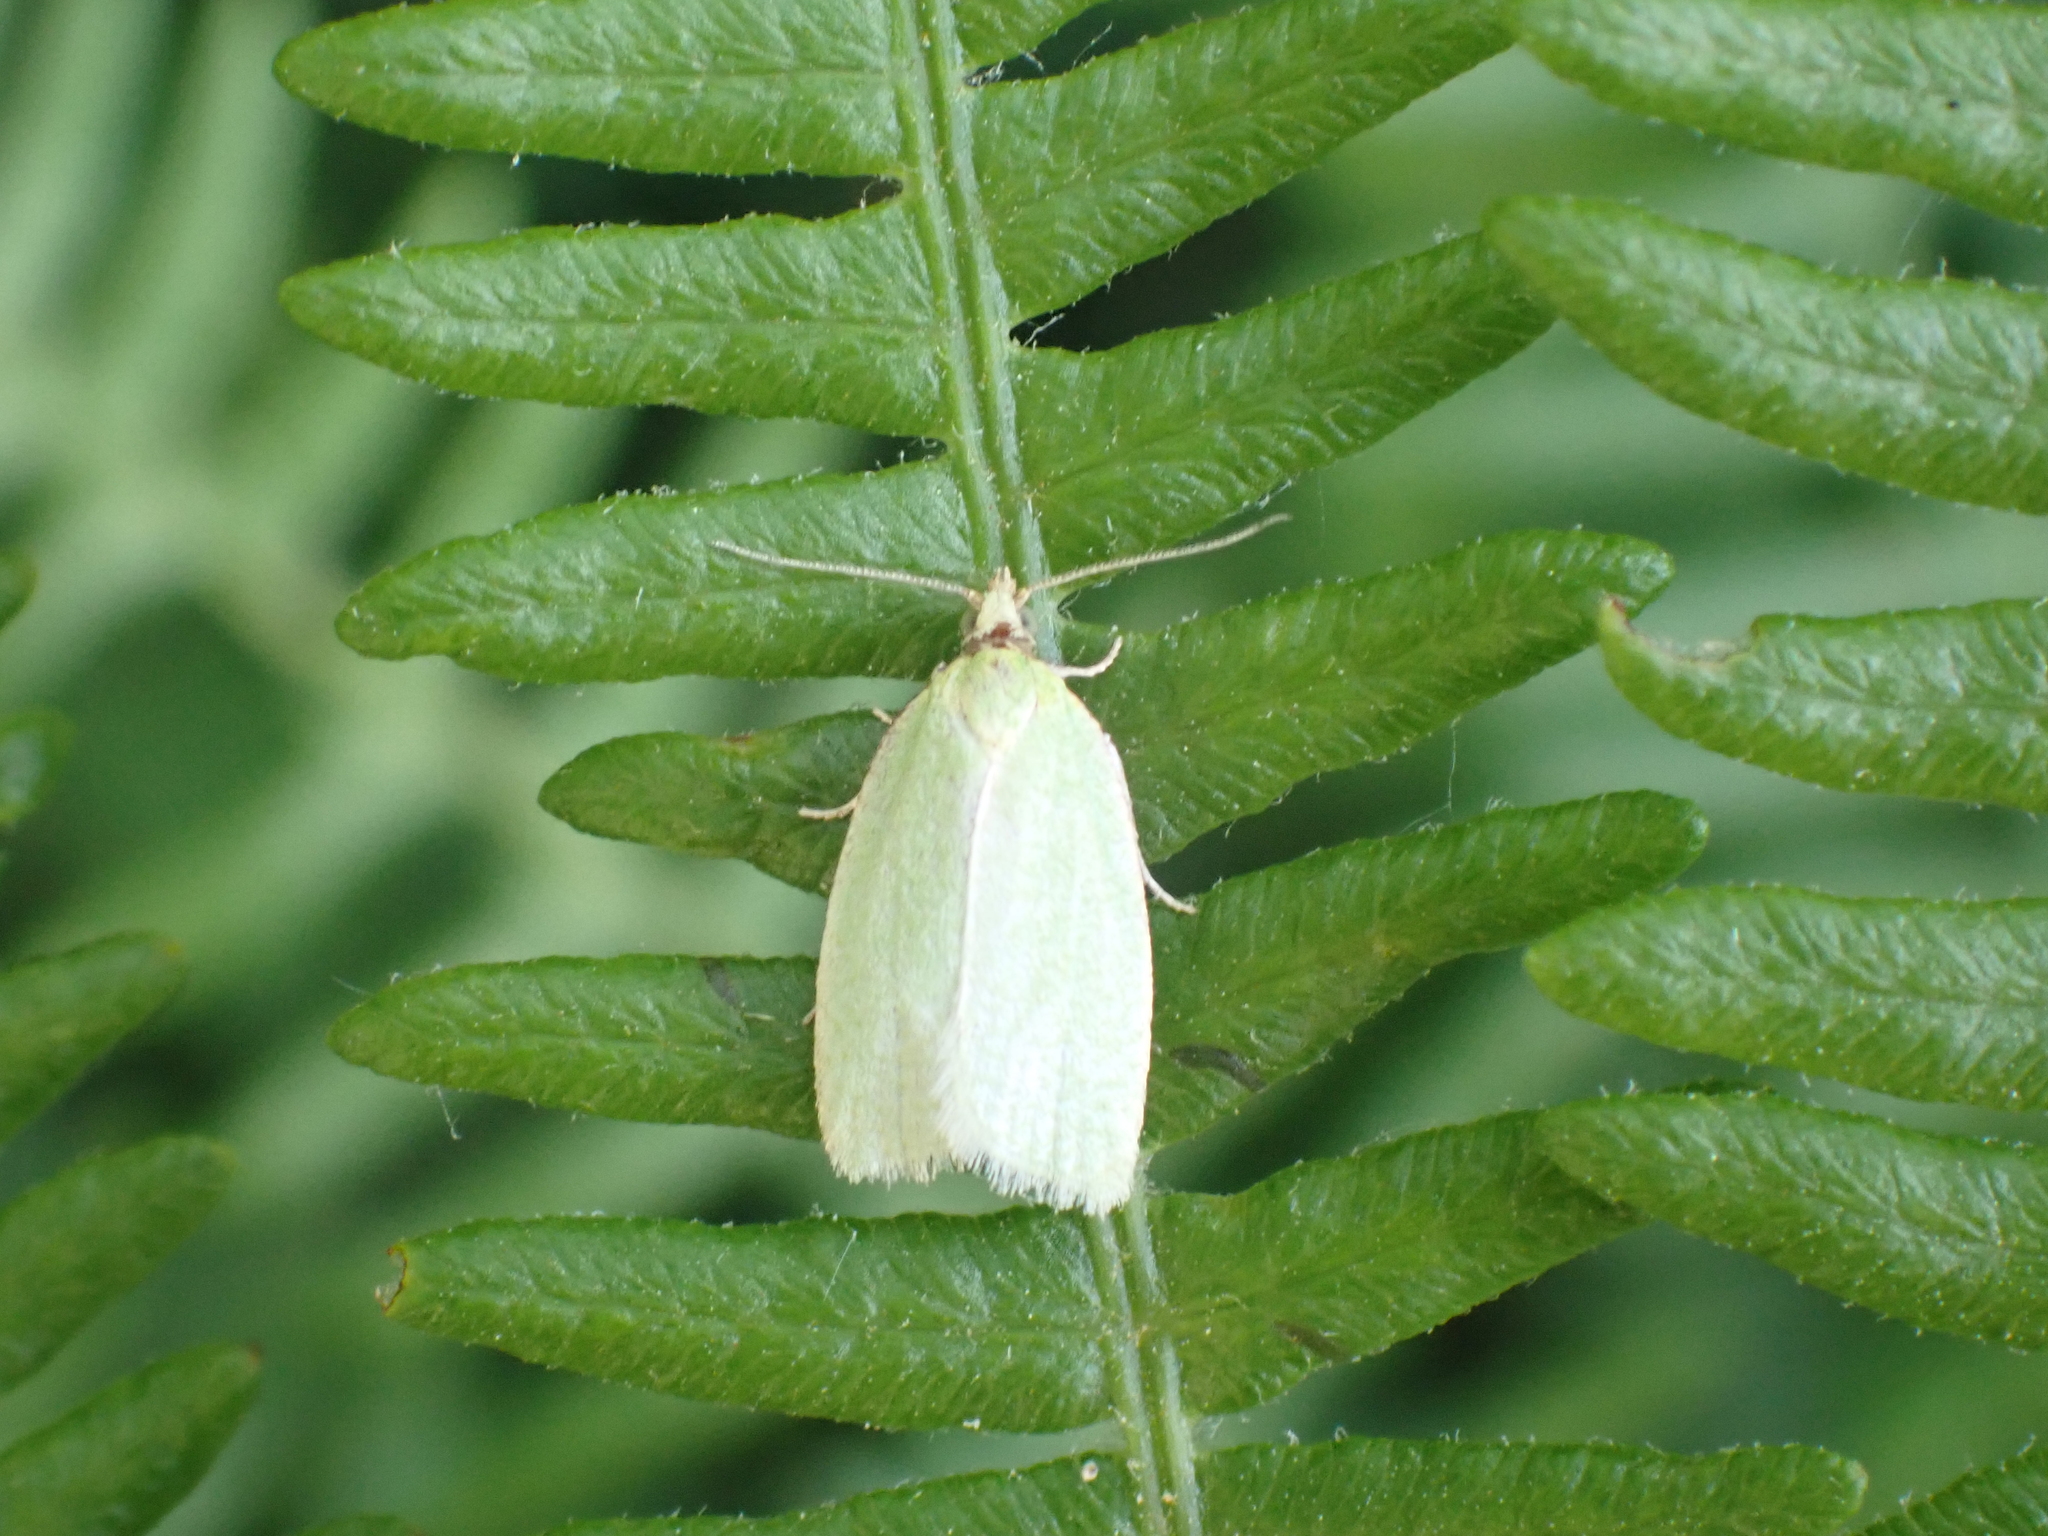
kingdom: Animalia
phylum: Arthropoda
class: Insecta
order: Lepidoptera
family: Tortricidae
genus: Tortrix
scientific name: Tortrix viridana
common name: Green oak tortrix
